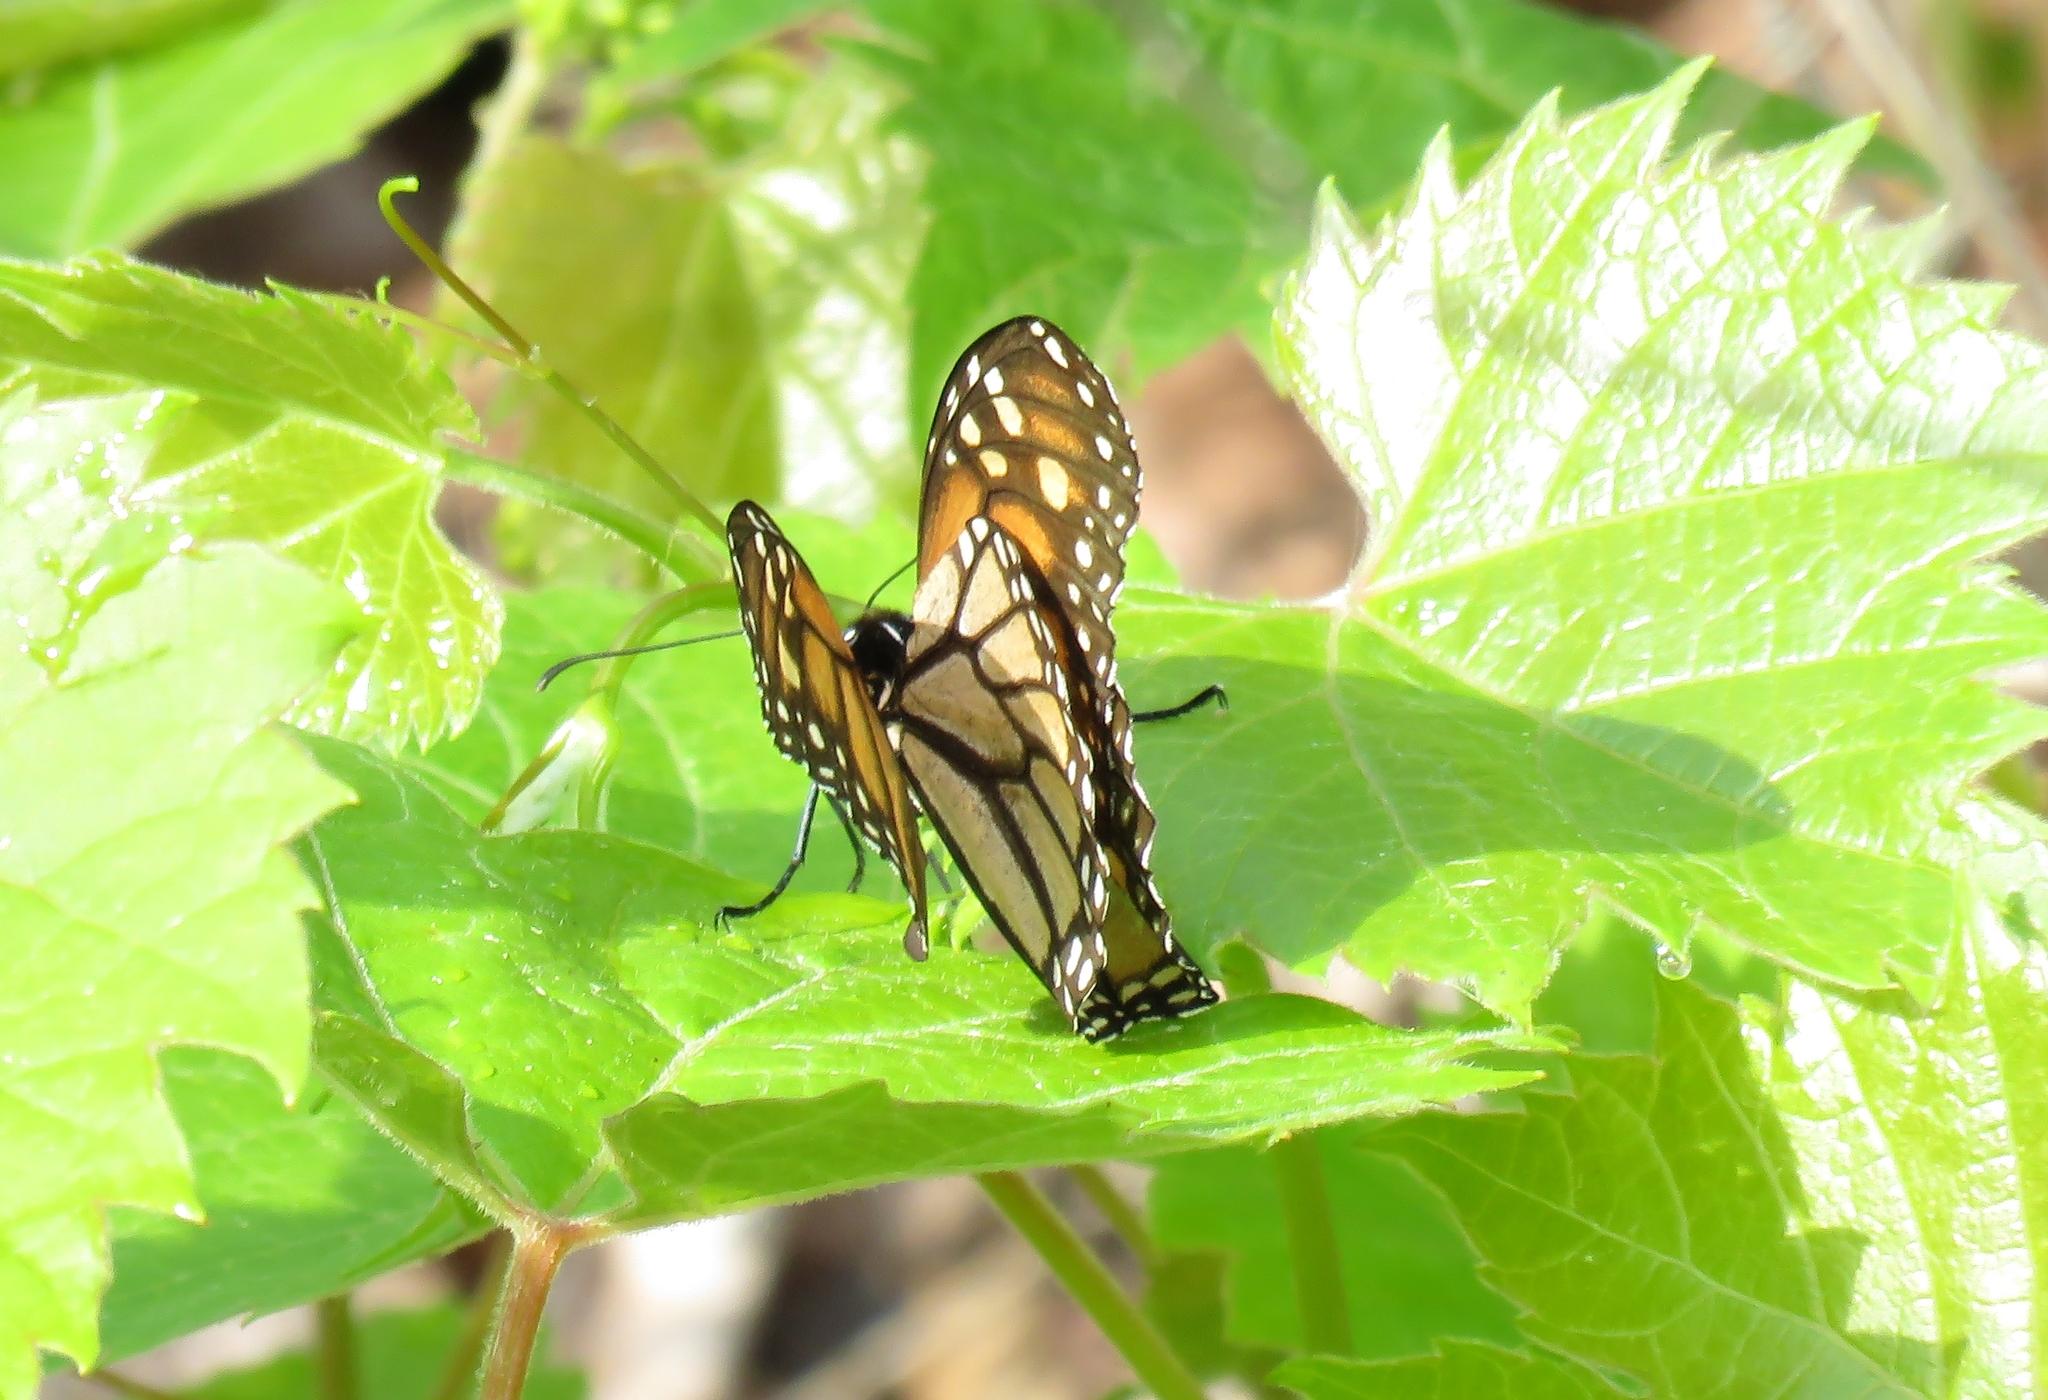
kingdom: Animalia
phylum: Arthropoda
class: Insecta
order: Lepidoptera
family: Nymphalidae
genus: Danaus
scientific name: Danaus plexippus
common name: Monarch
